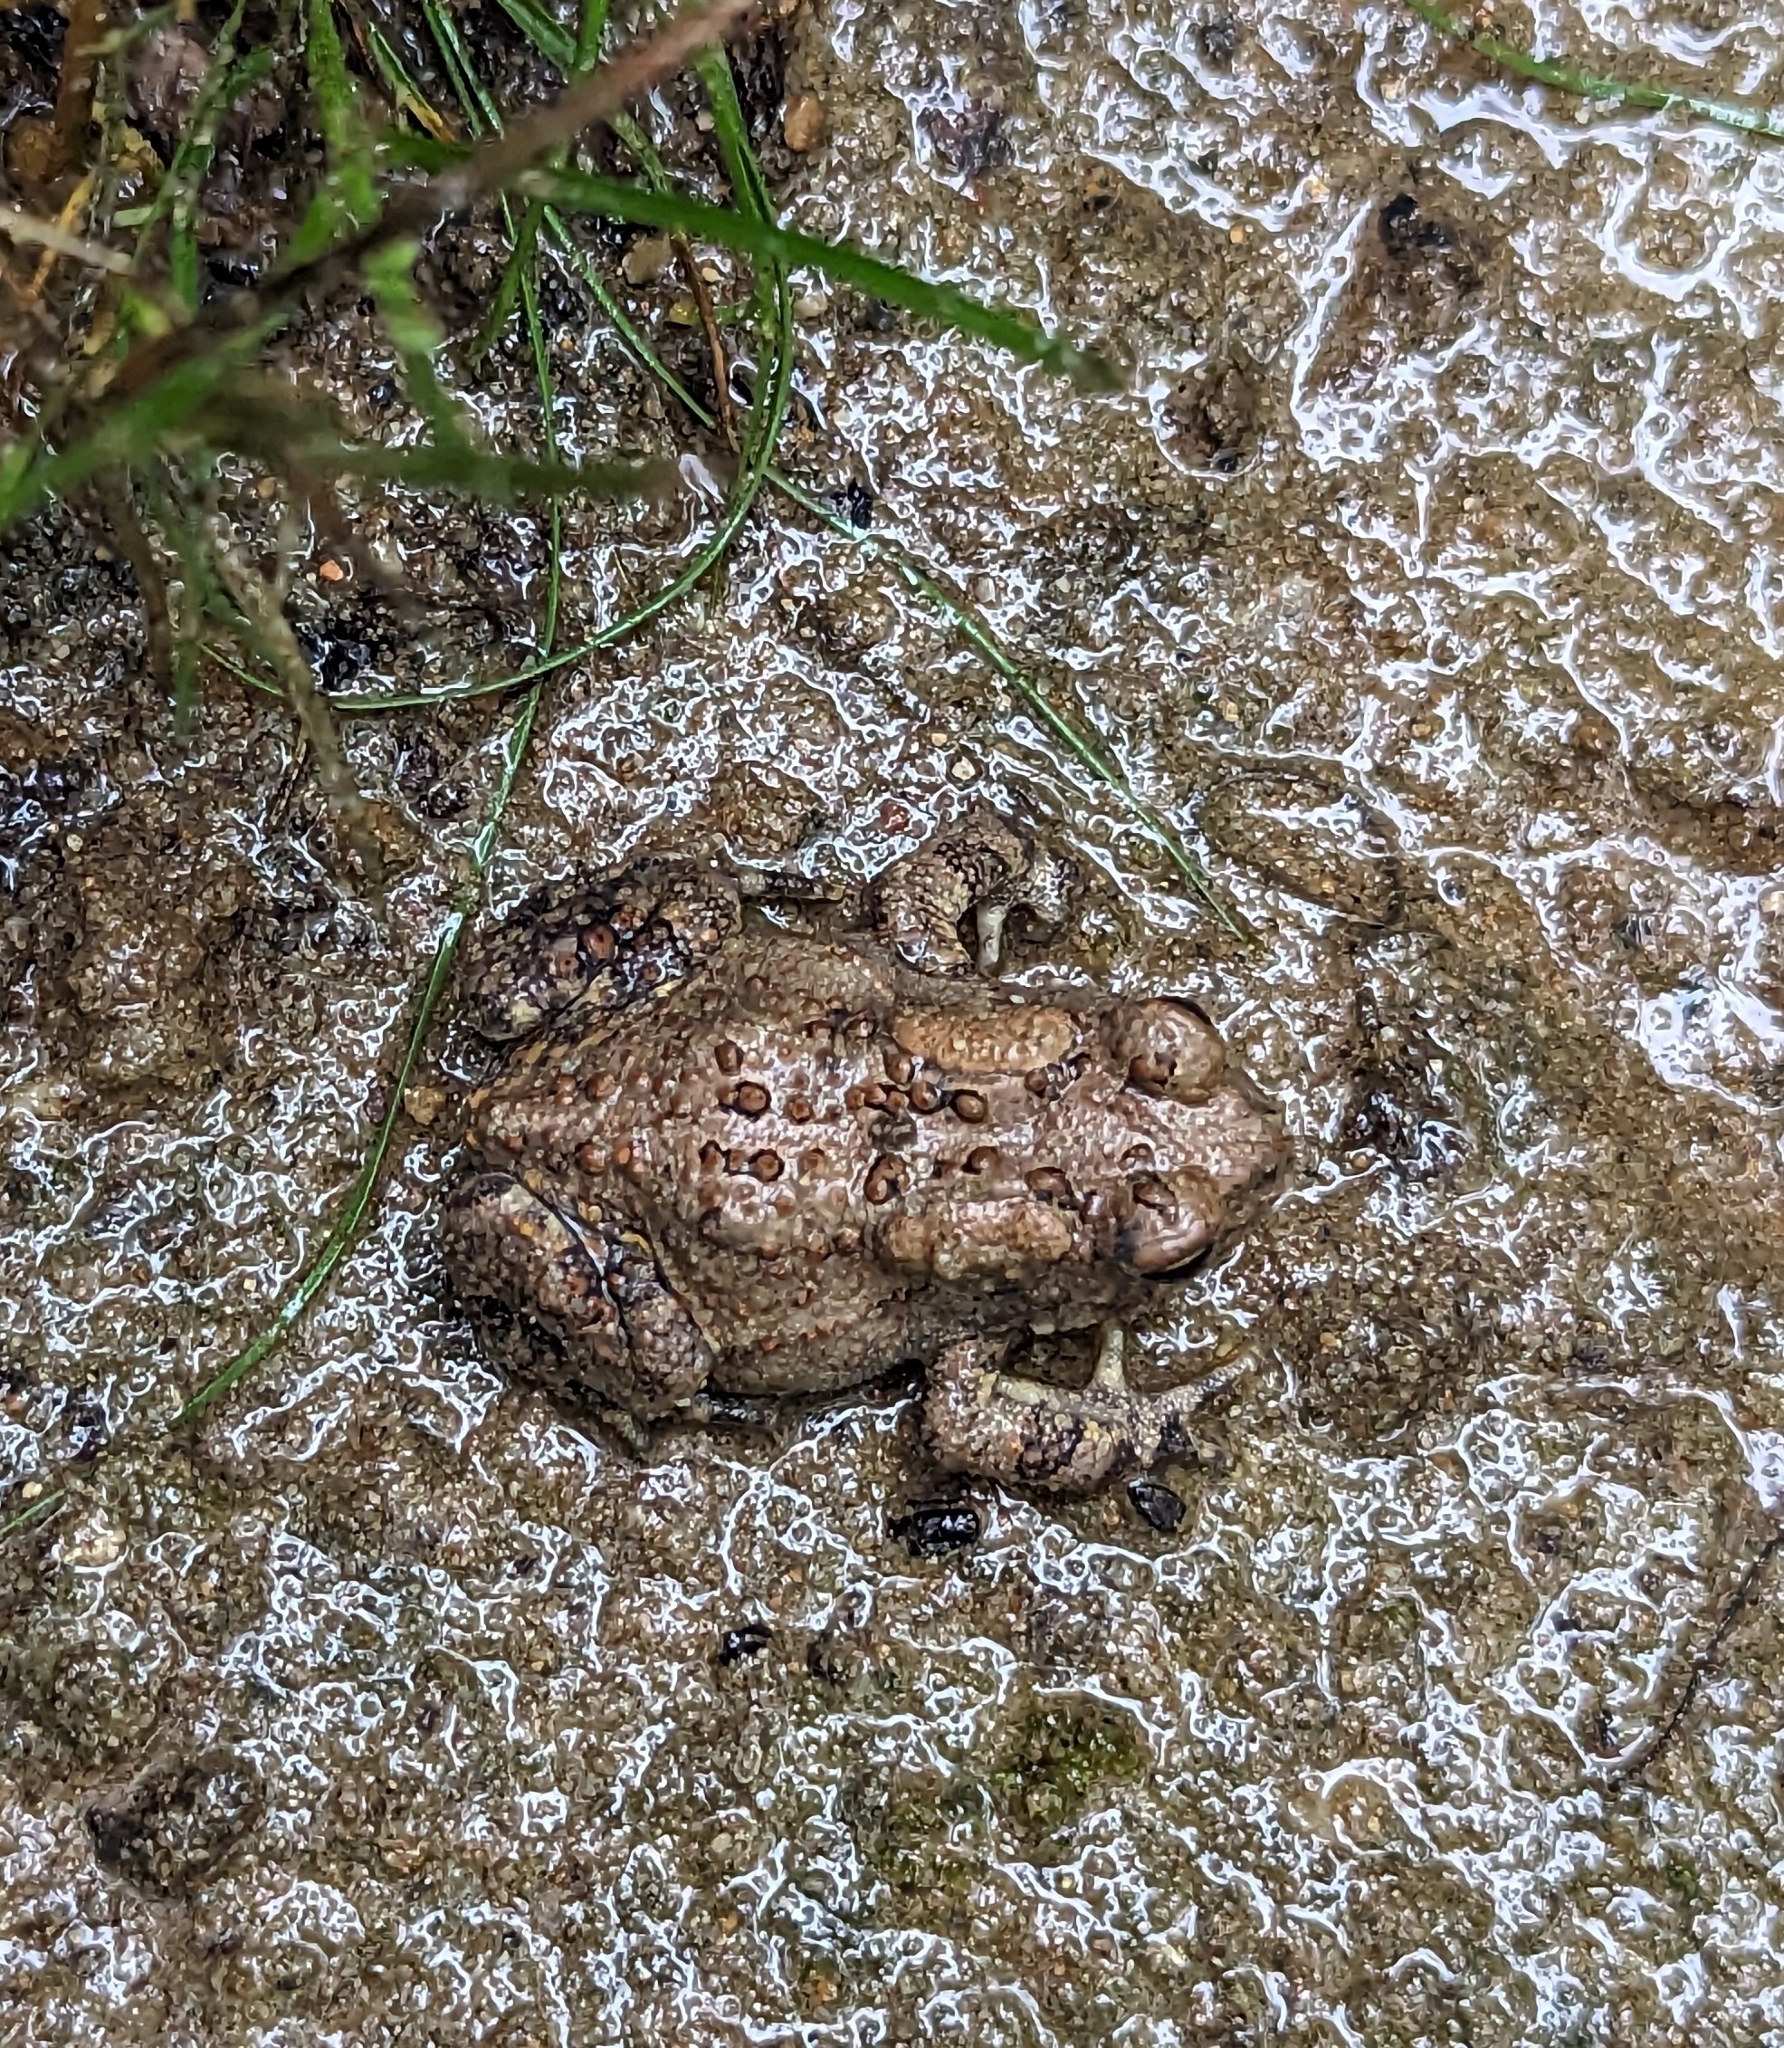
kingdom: Animalia
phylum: Chordata
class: Amphibia
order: Anura
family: Bufonidae
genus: Anaxyrus
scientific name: Anaxyrus americanus
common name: American toad
